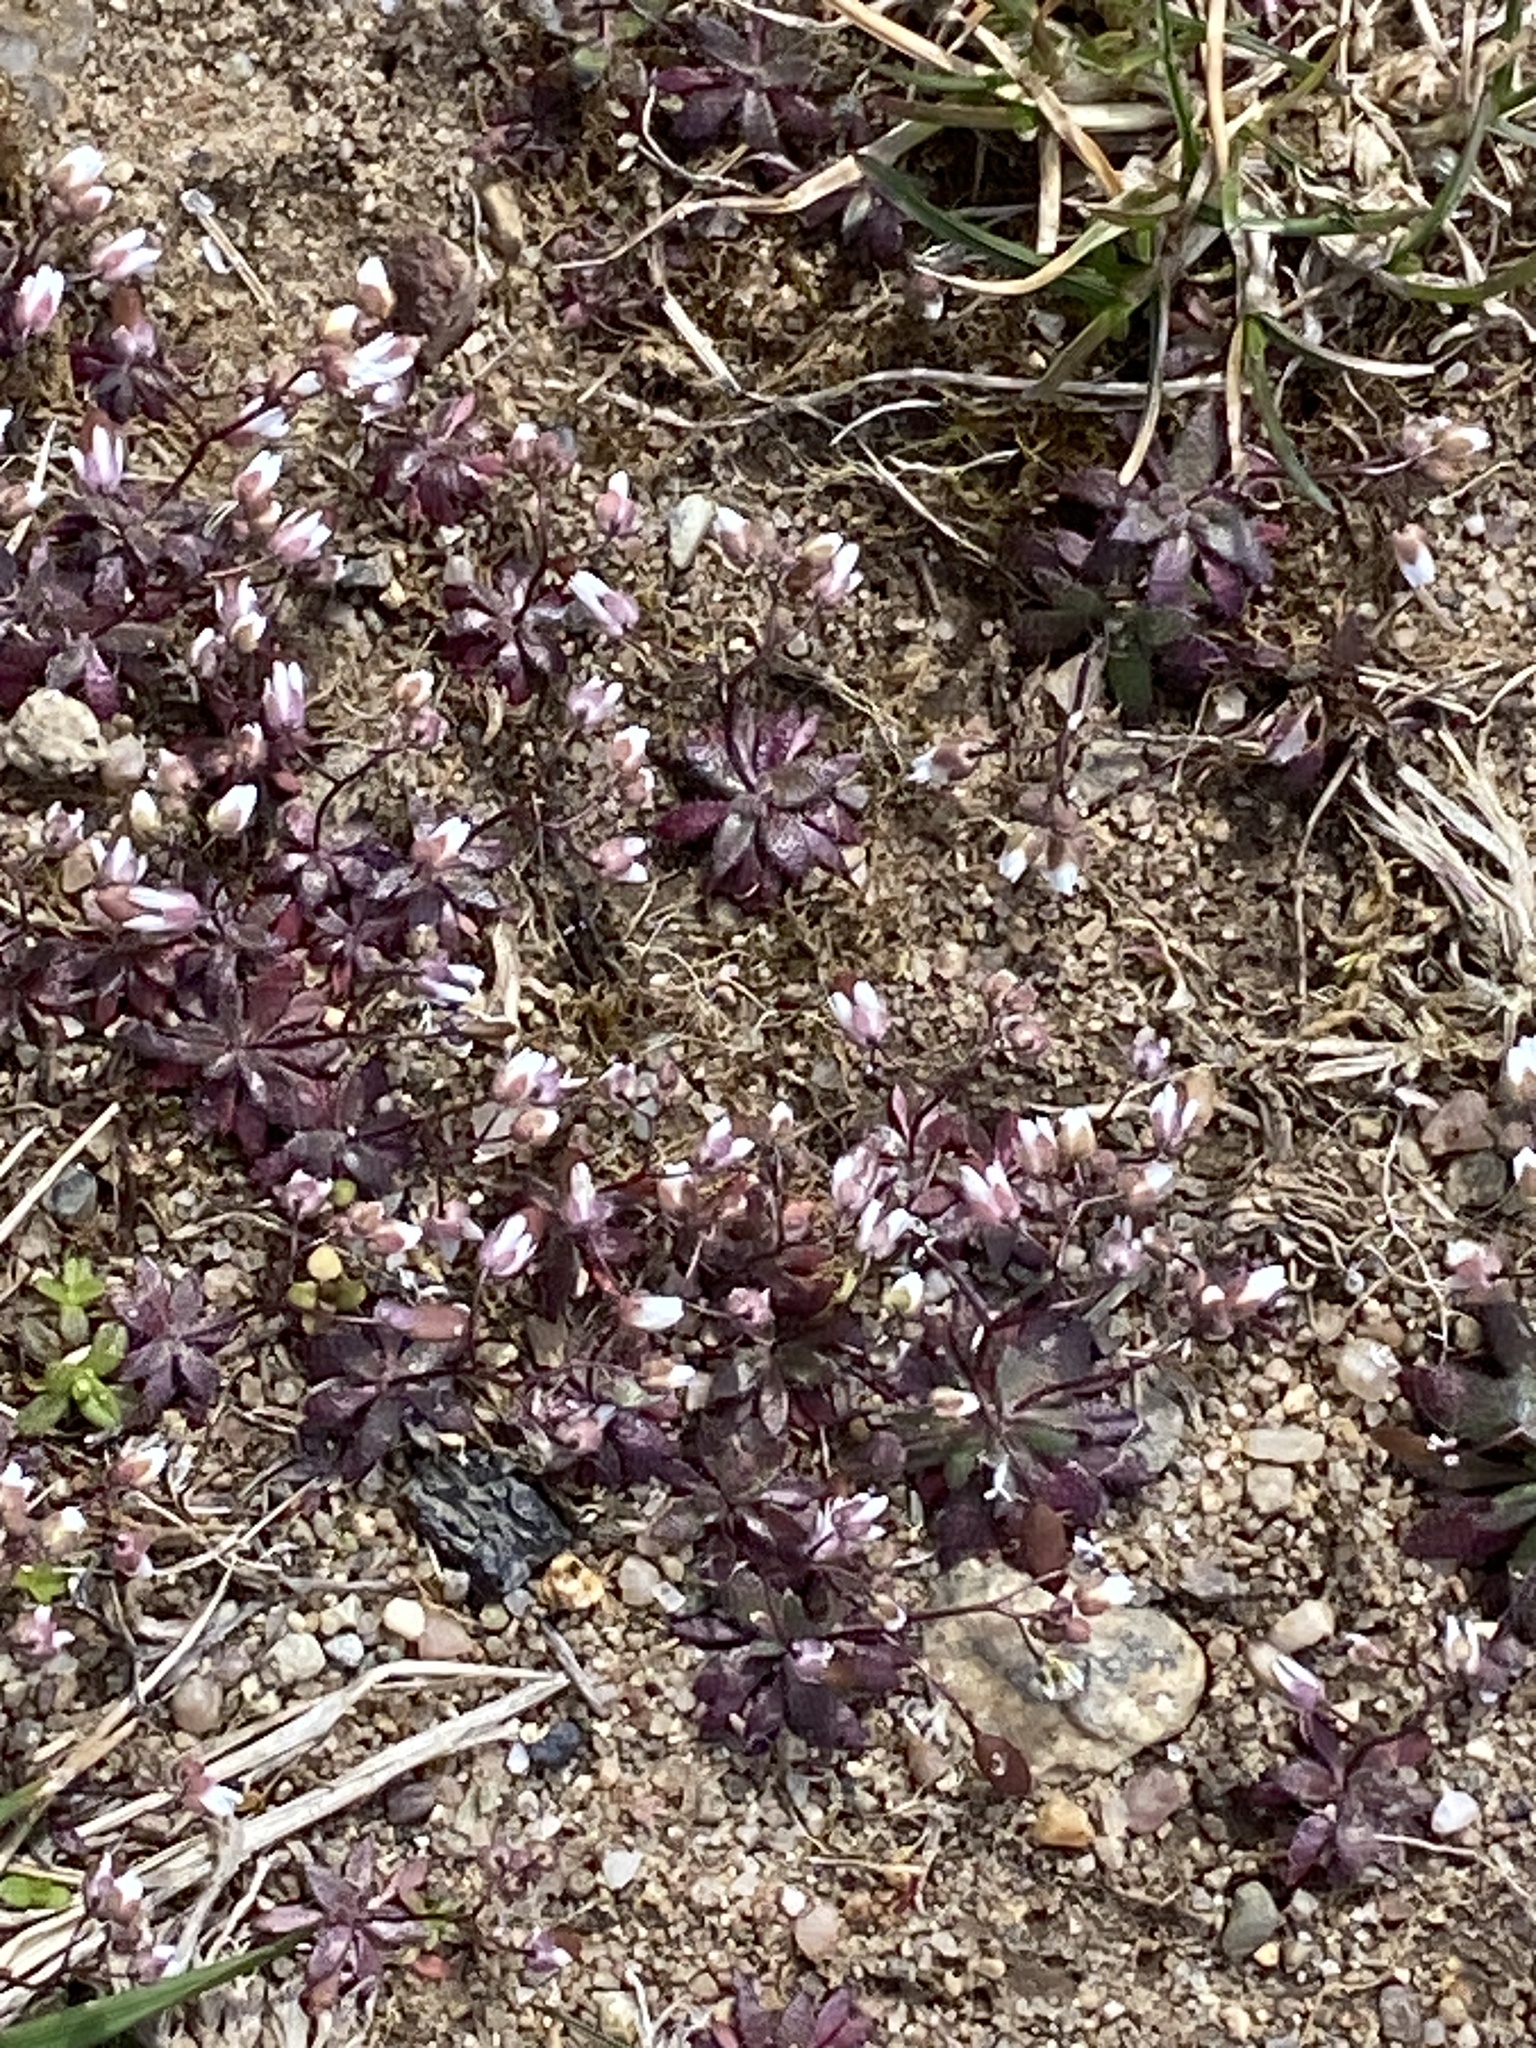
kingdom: Plantae
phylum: Tracheophyta
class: Magnoliopsida
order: Brassicales
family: Brassicaceae
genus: Draba
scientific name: Draba verna
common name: Spring draba
